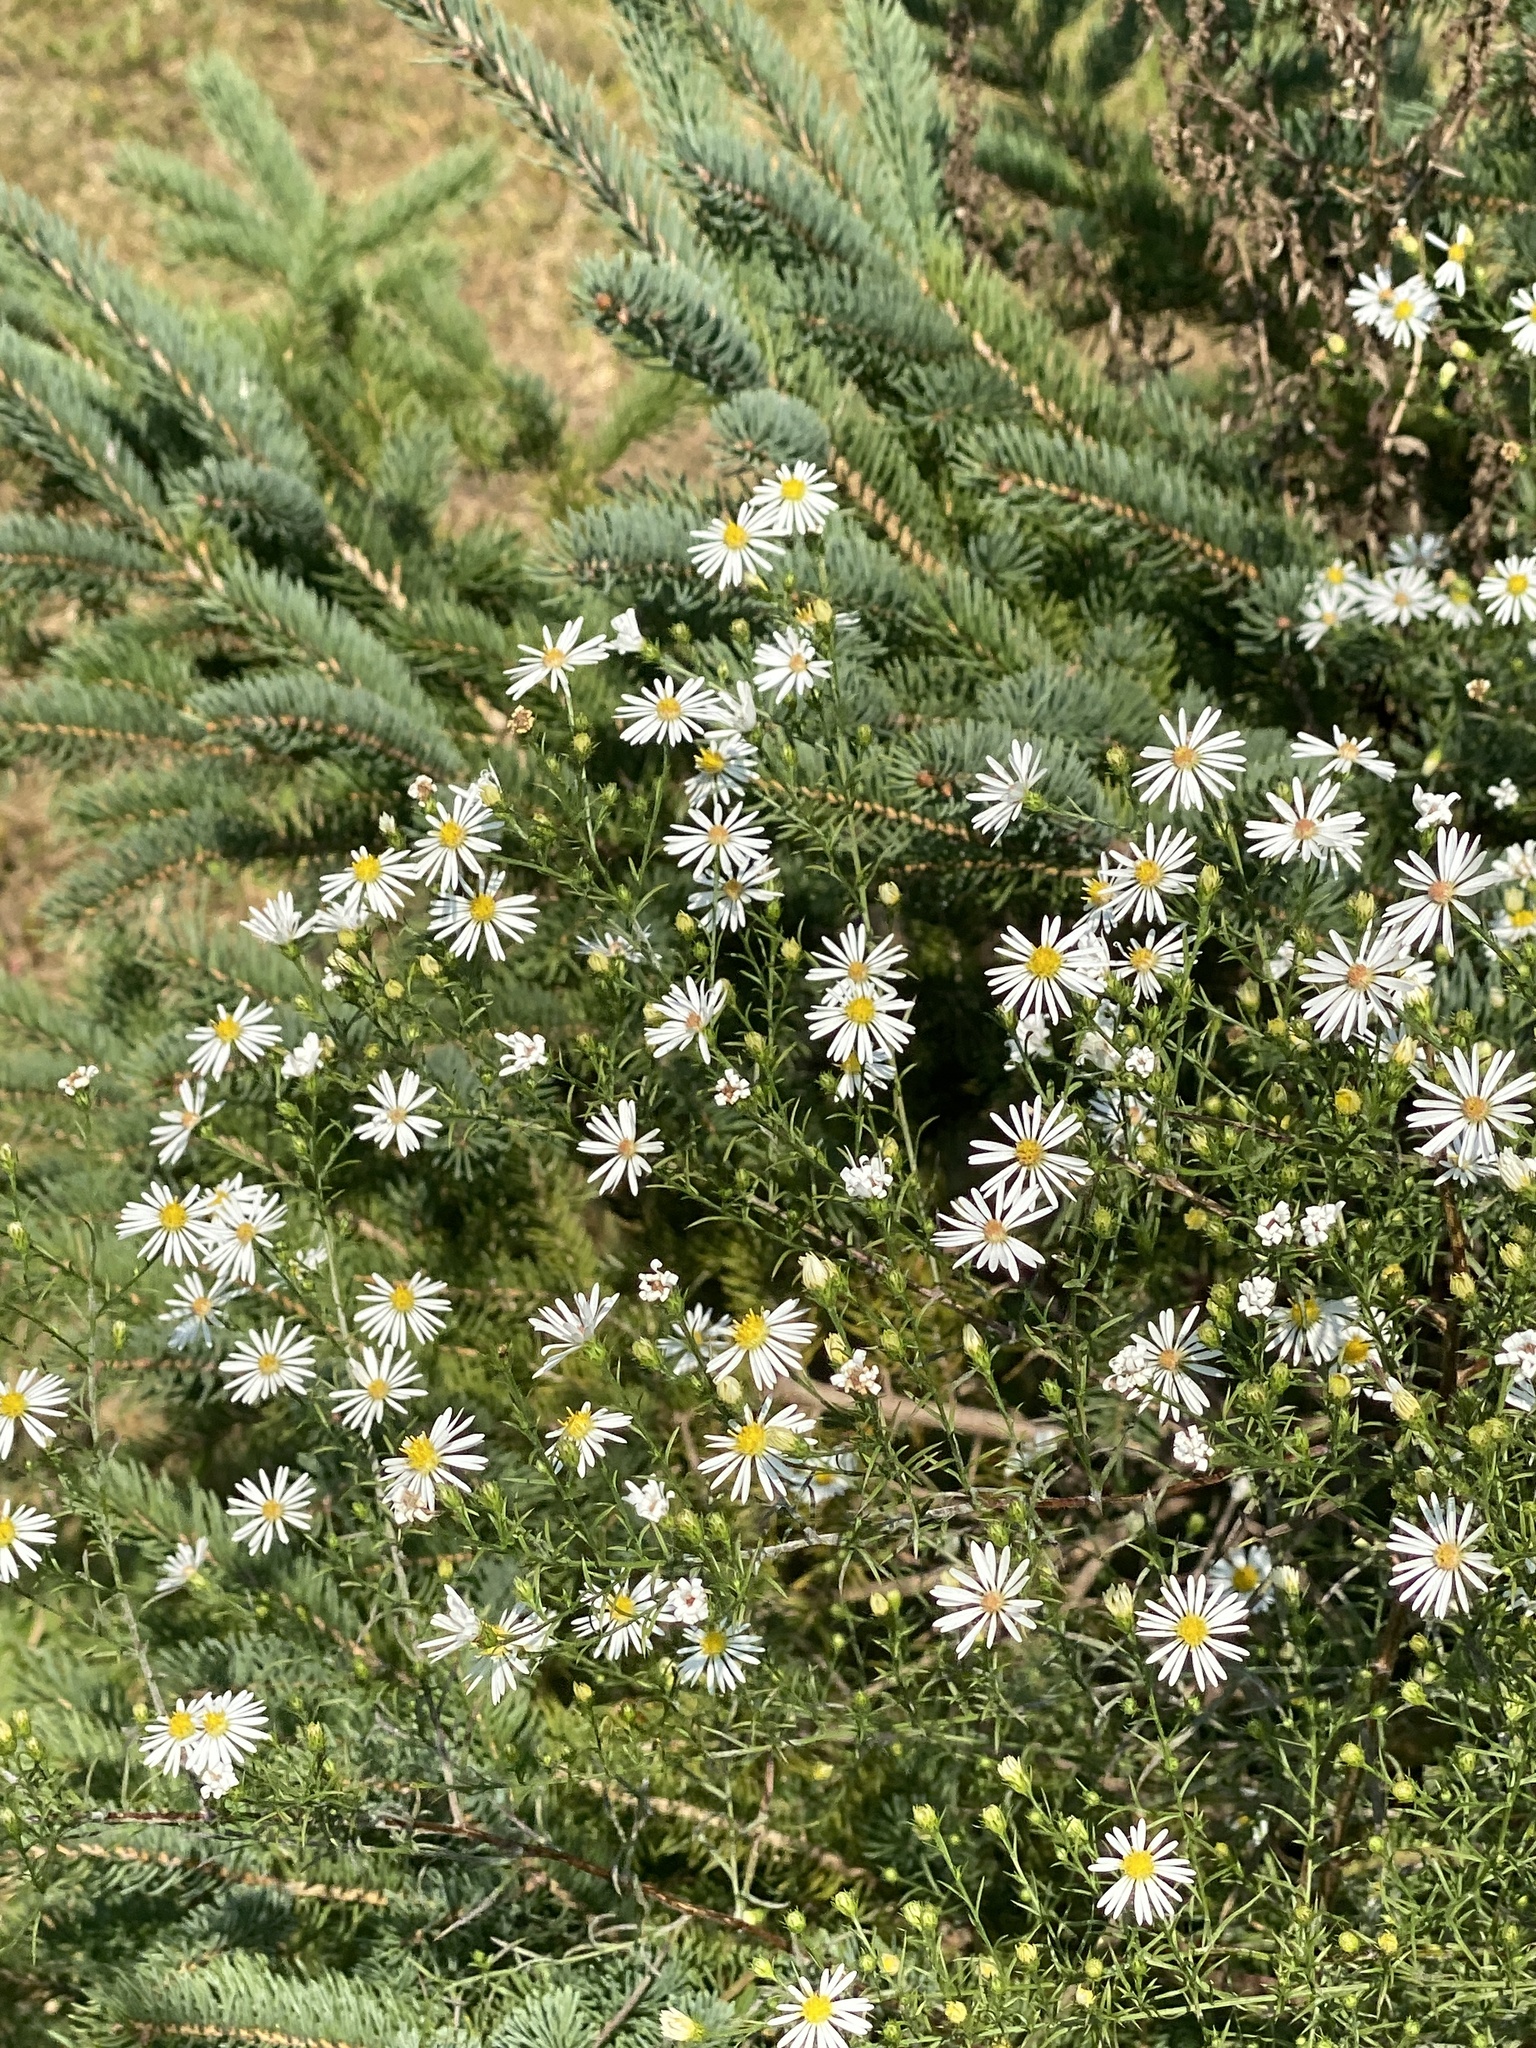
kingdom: Plantae
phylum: Tracheophyta
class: Magnoliopsida
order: Asterales
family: Asteraceae
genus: Symphyotrichum
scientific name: Symphyotrichum pilosum
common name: Awl aster
